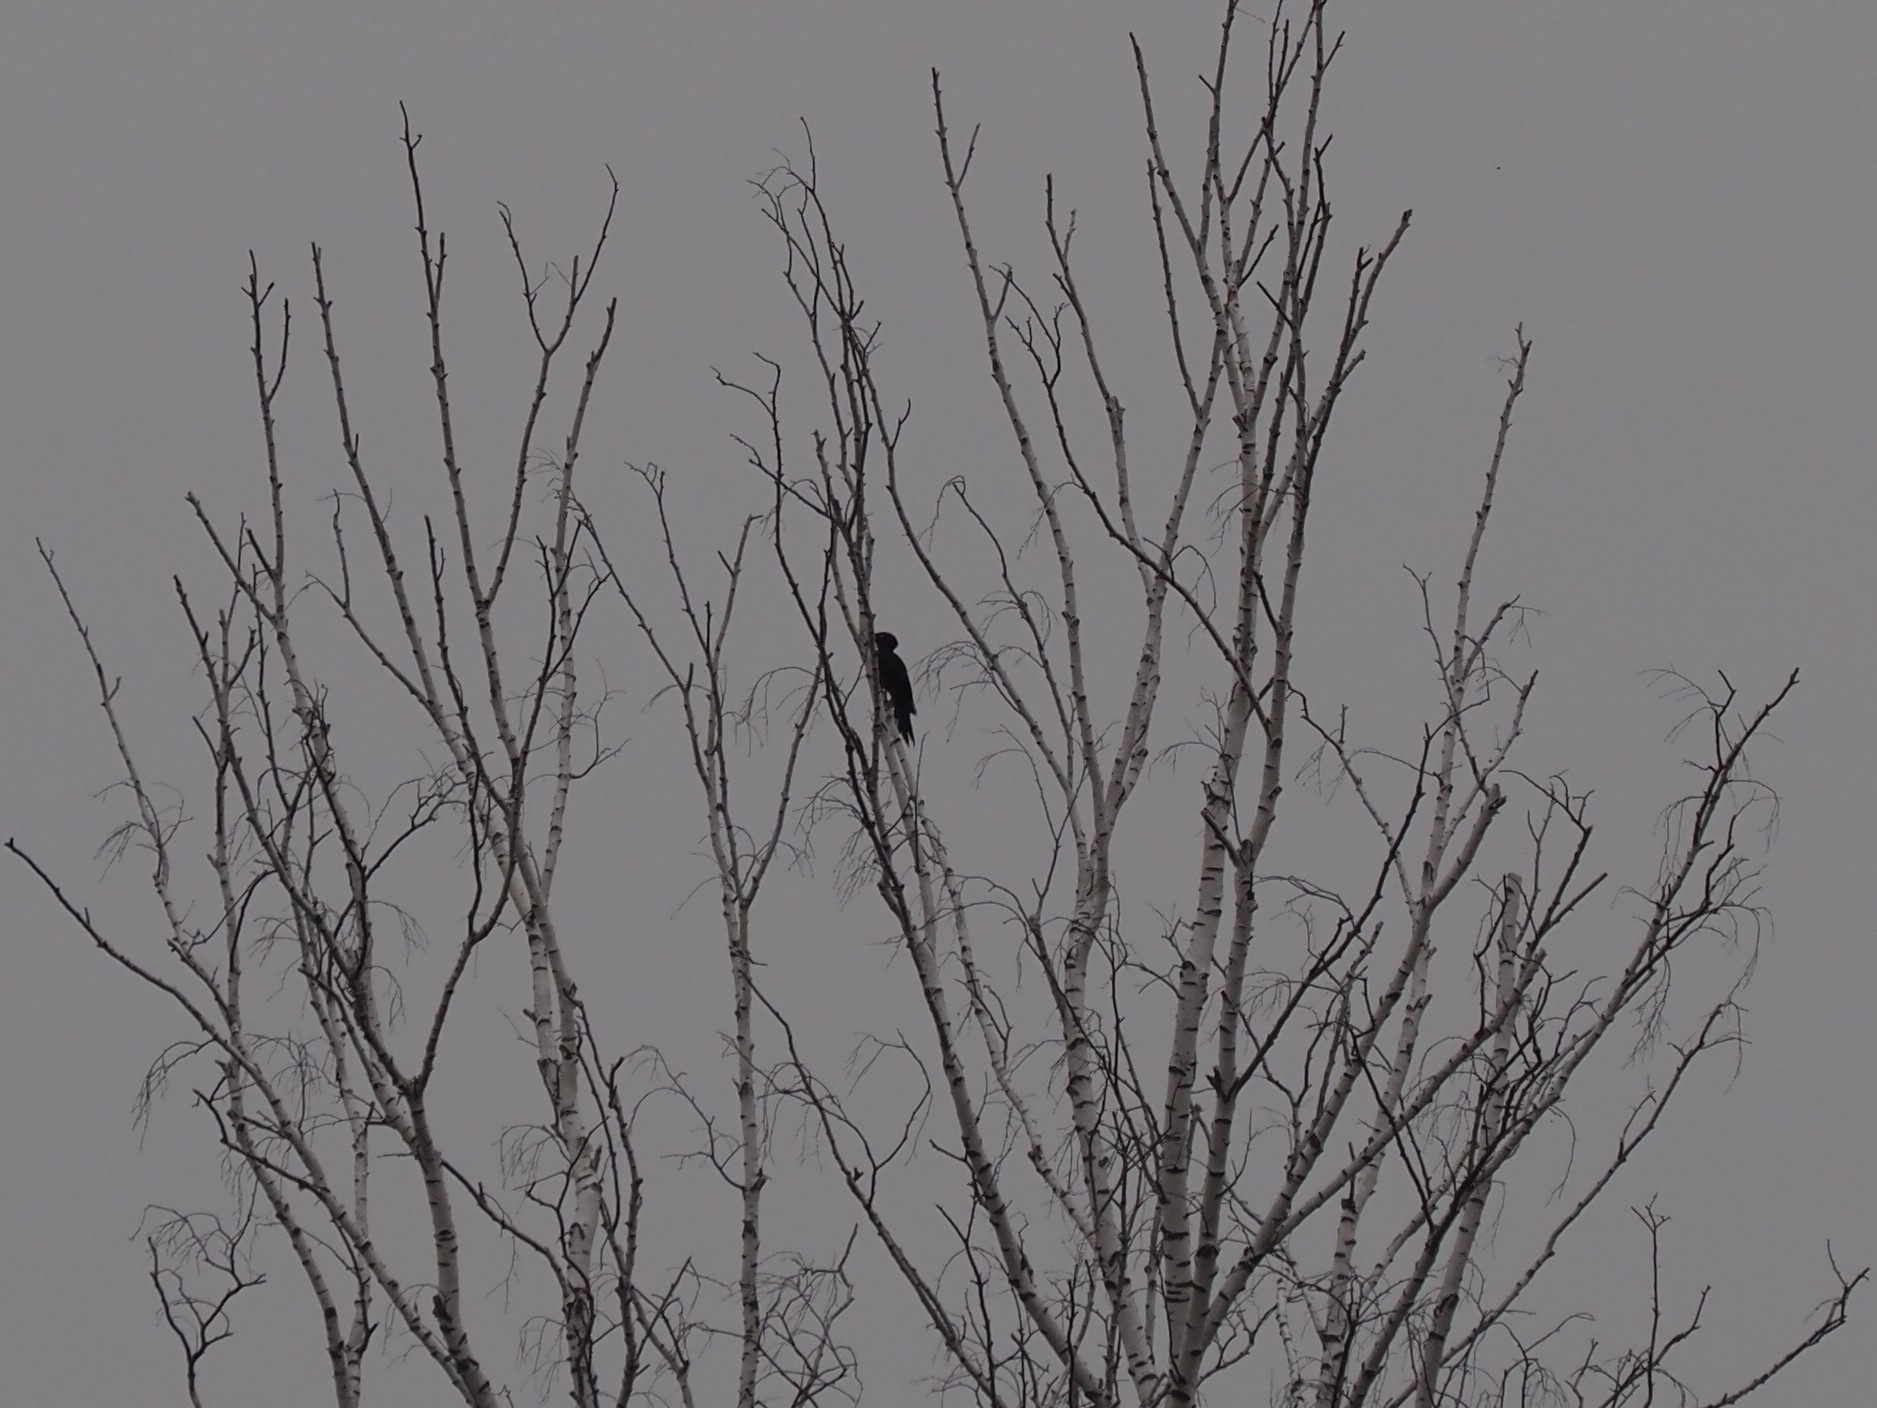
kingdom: Animalia
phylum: Chordata
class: Aves
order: Piciformes
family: Picidae
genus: Dryocopus
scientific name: Dryocopus martius
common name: Black woodpecker
